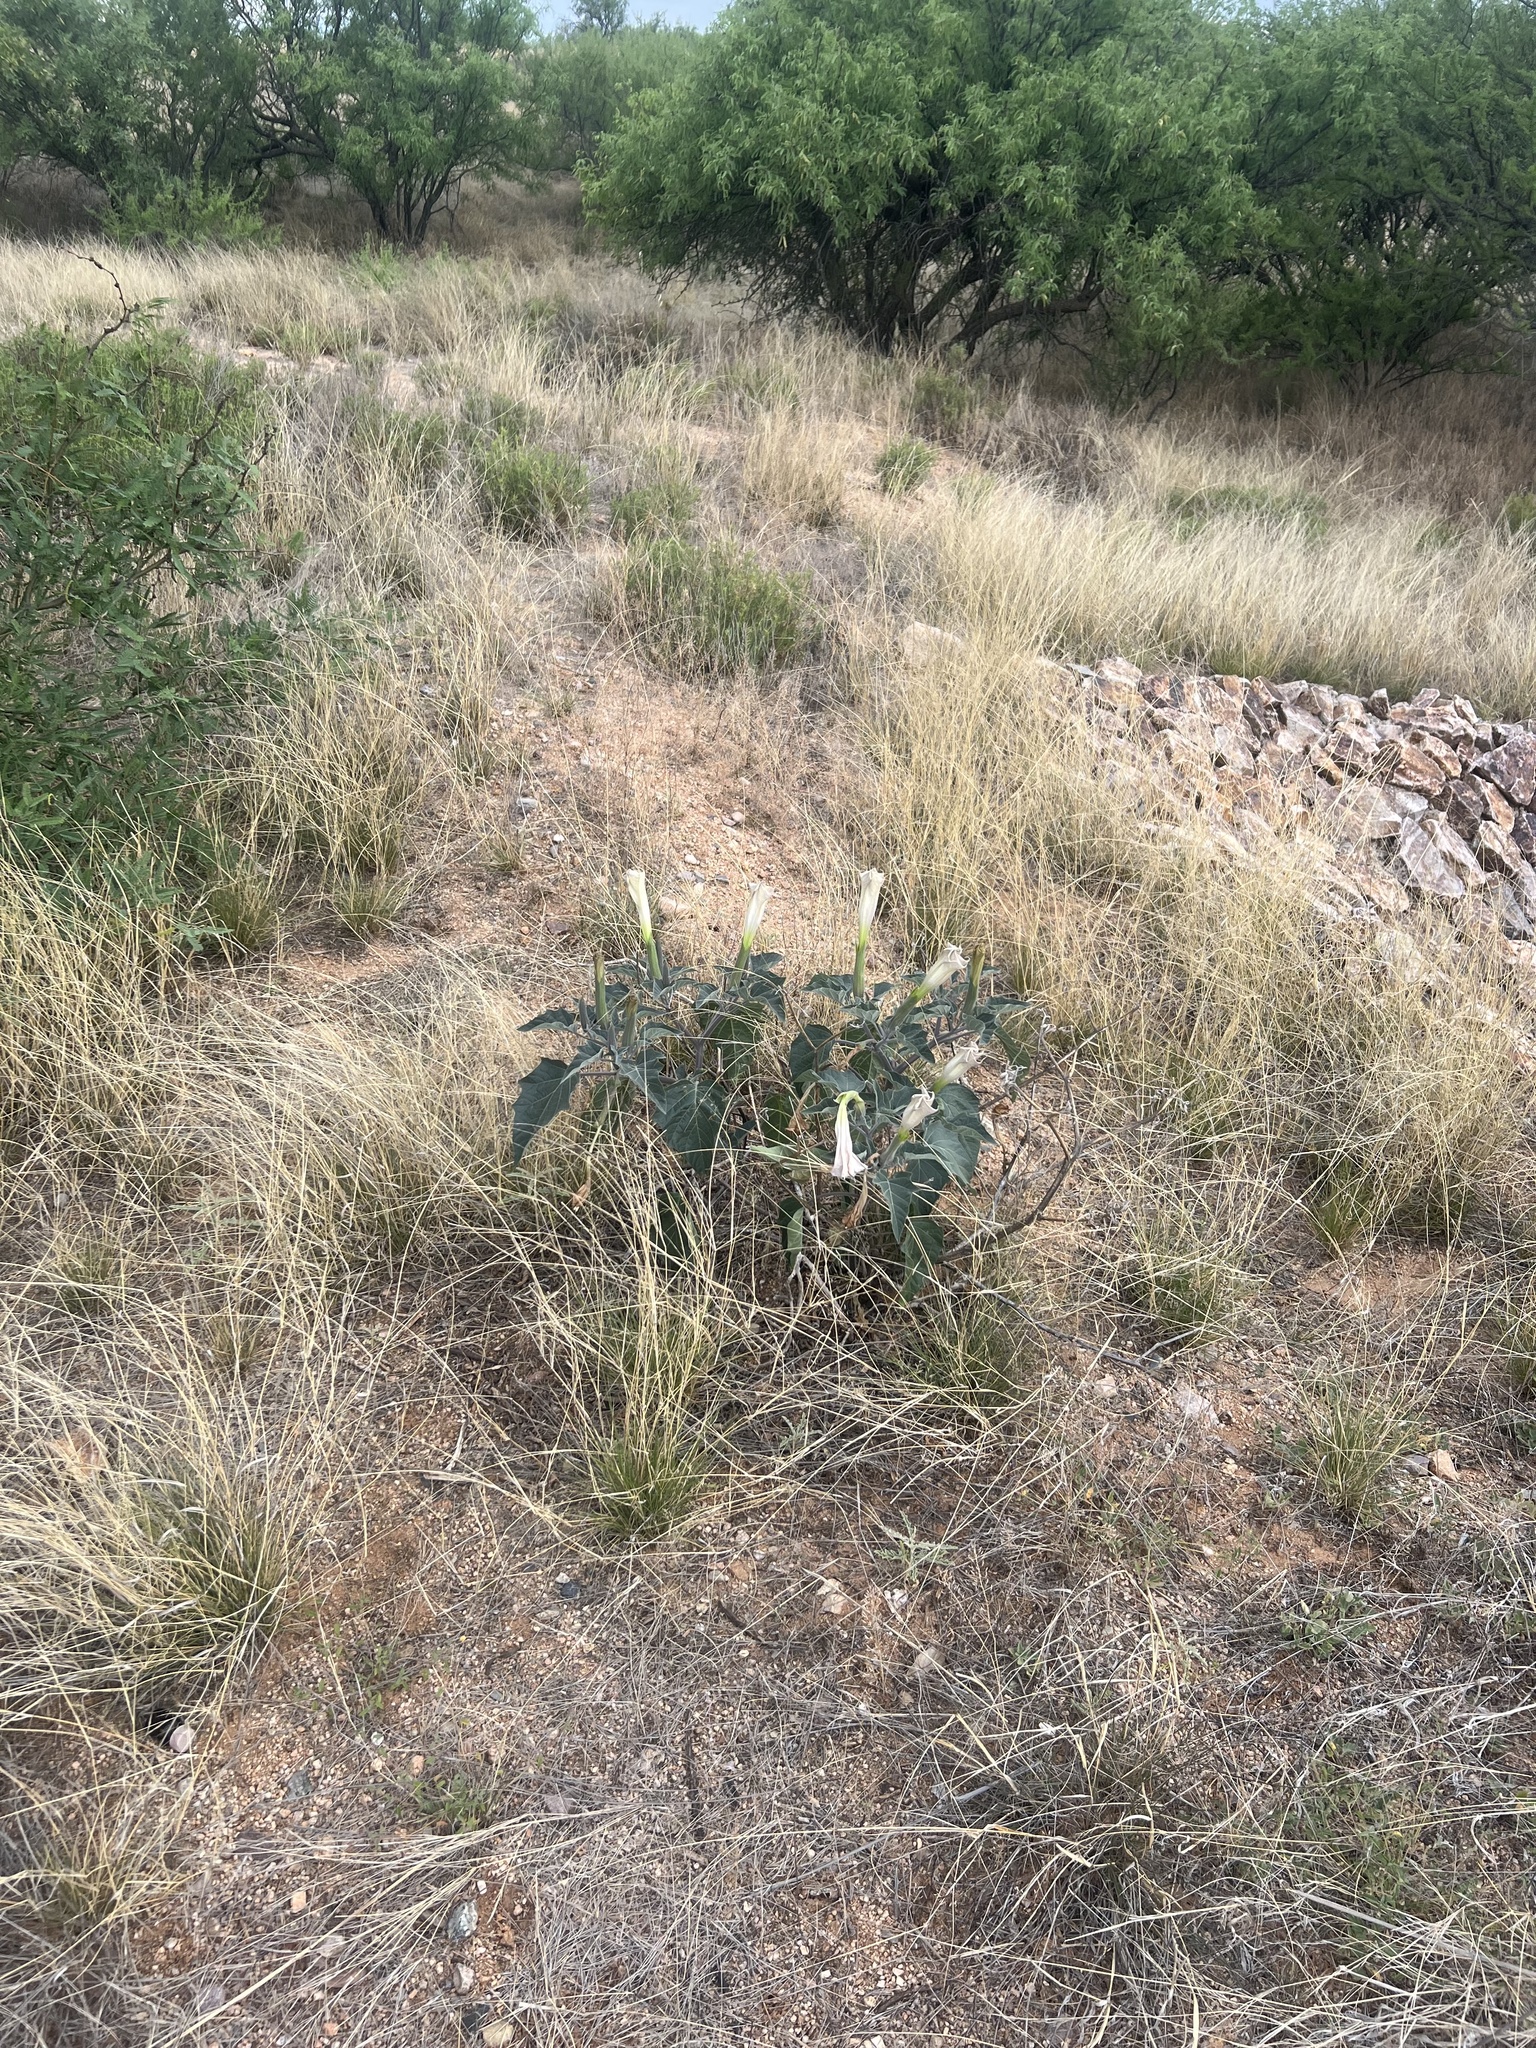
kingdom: Plantae
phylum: Tracheophyta
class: Magnoliopsida
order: Solanales
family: Solanaceae
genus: Datura
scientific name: Datura wrightii
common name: Sacred thorn-apple
